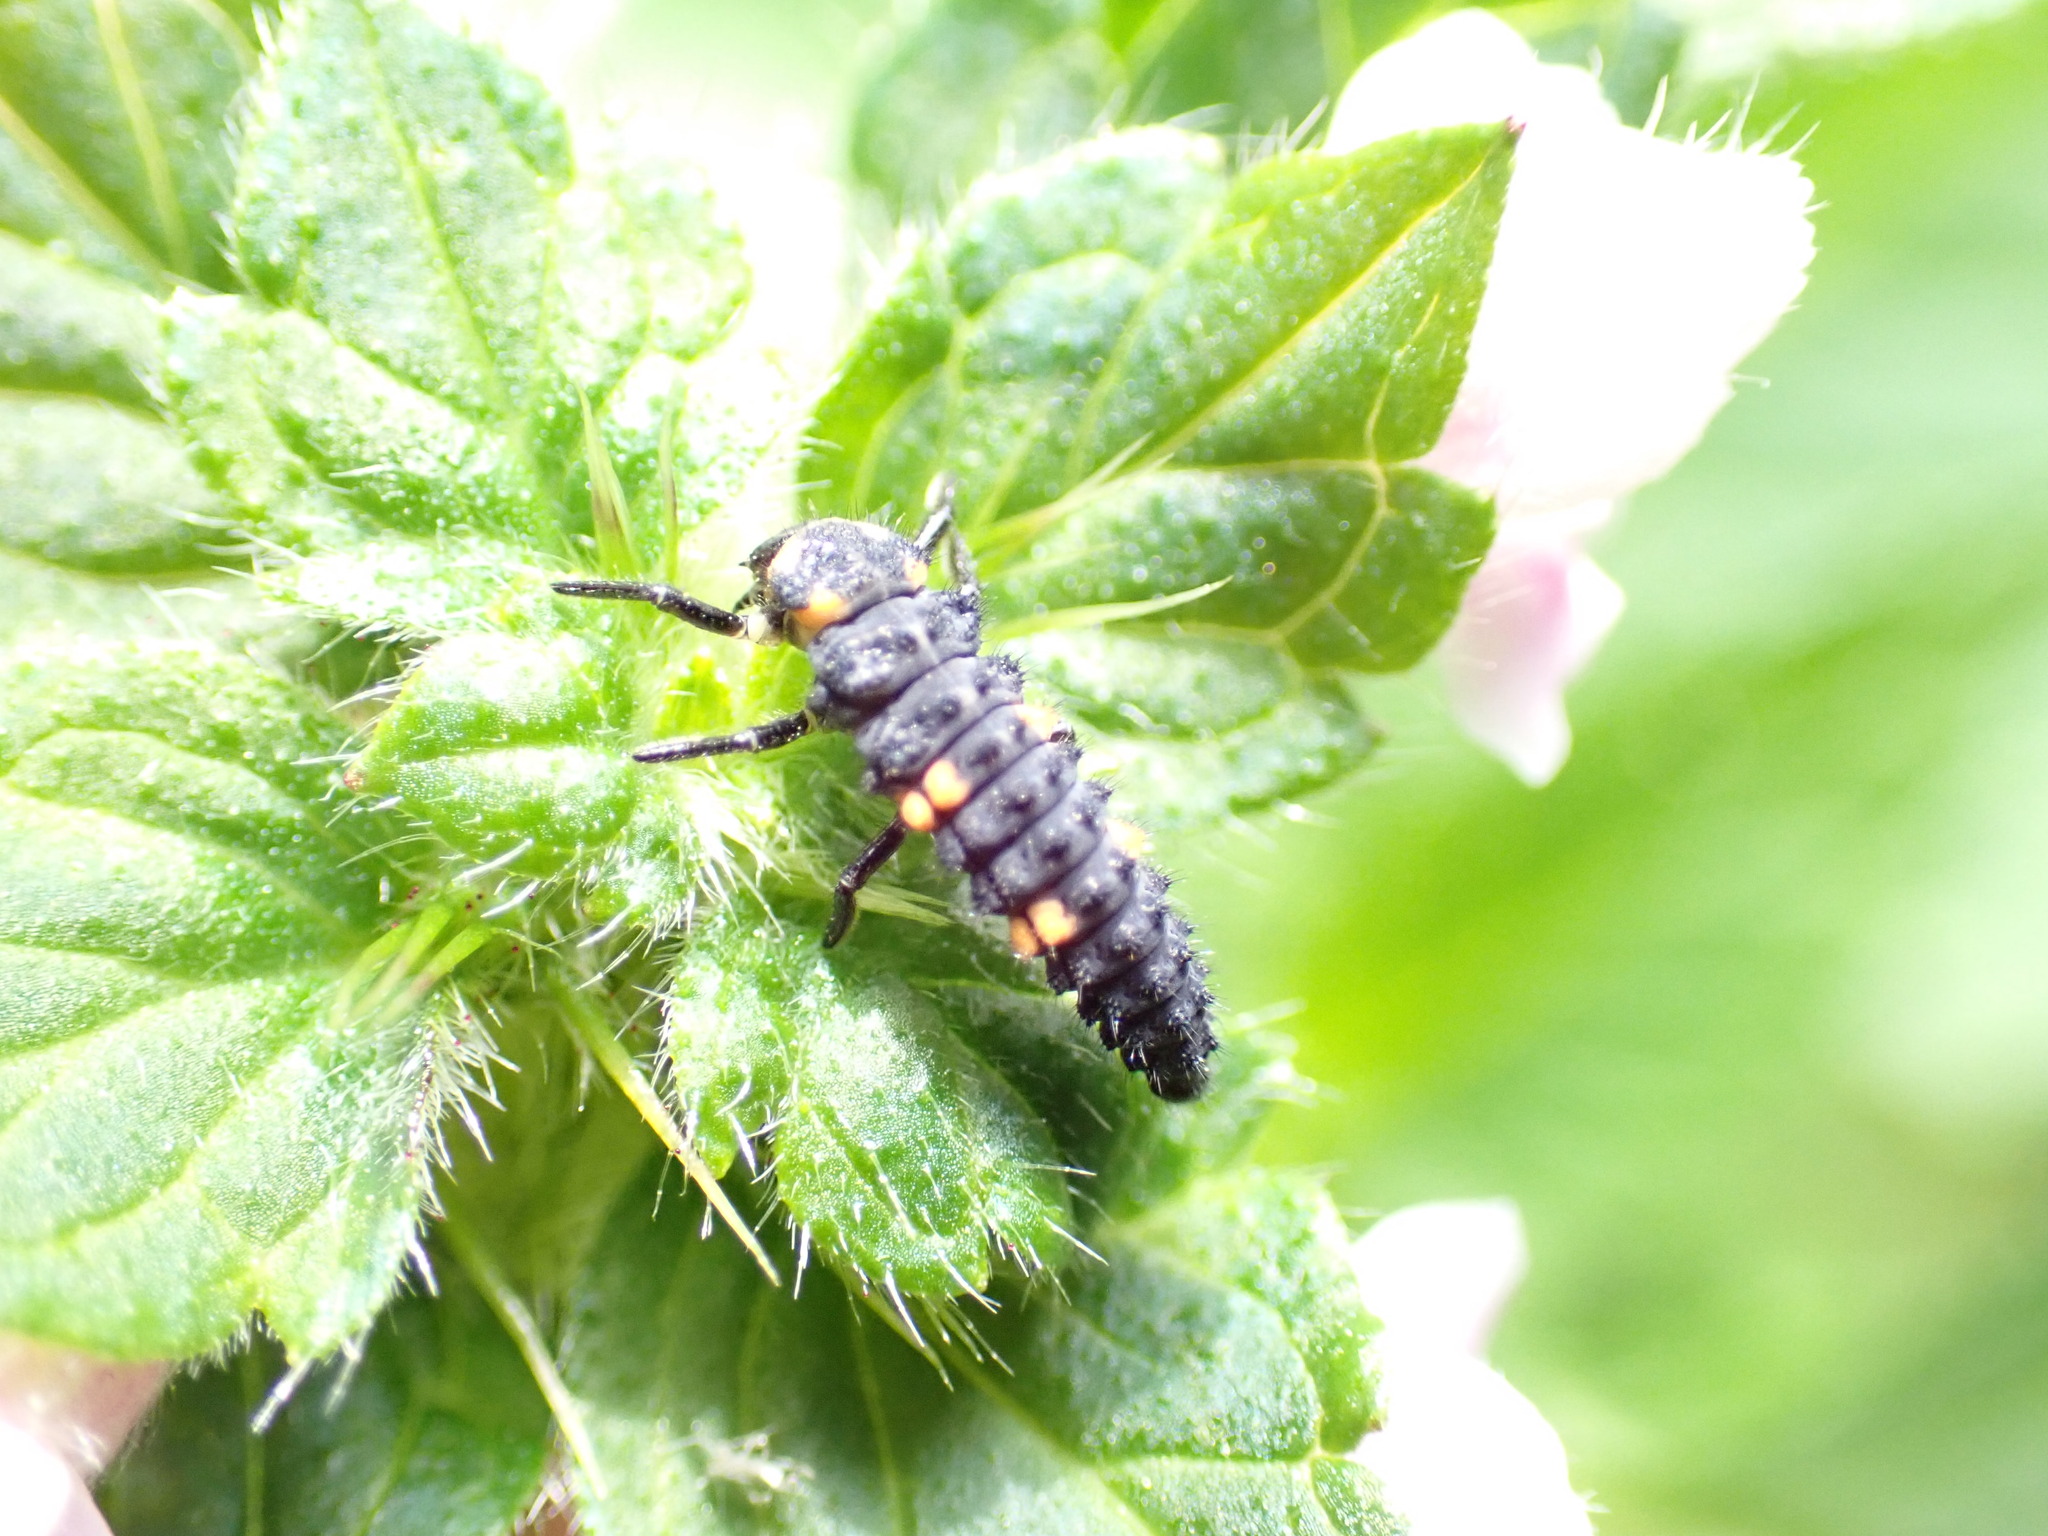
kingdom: Animalia
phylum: Arthropoda
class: Insecta
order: Coleoptera
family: Coccinellidae
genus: Coccinella
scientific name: Coccinella septempunctata
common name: Sevenspotted lady beetle
